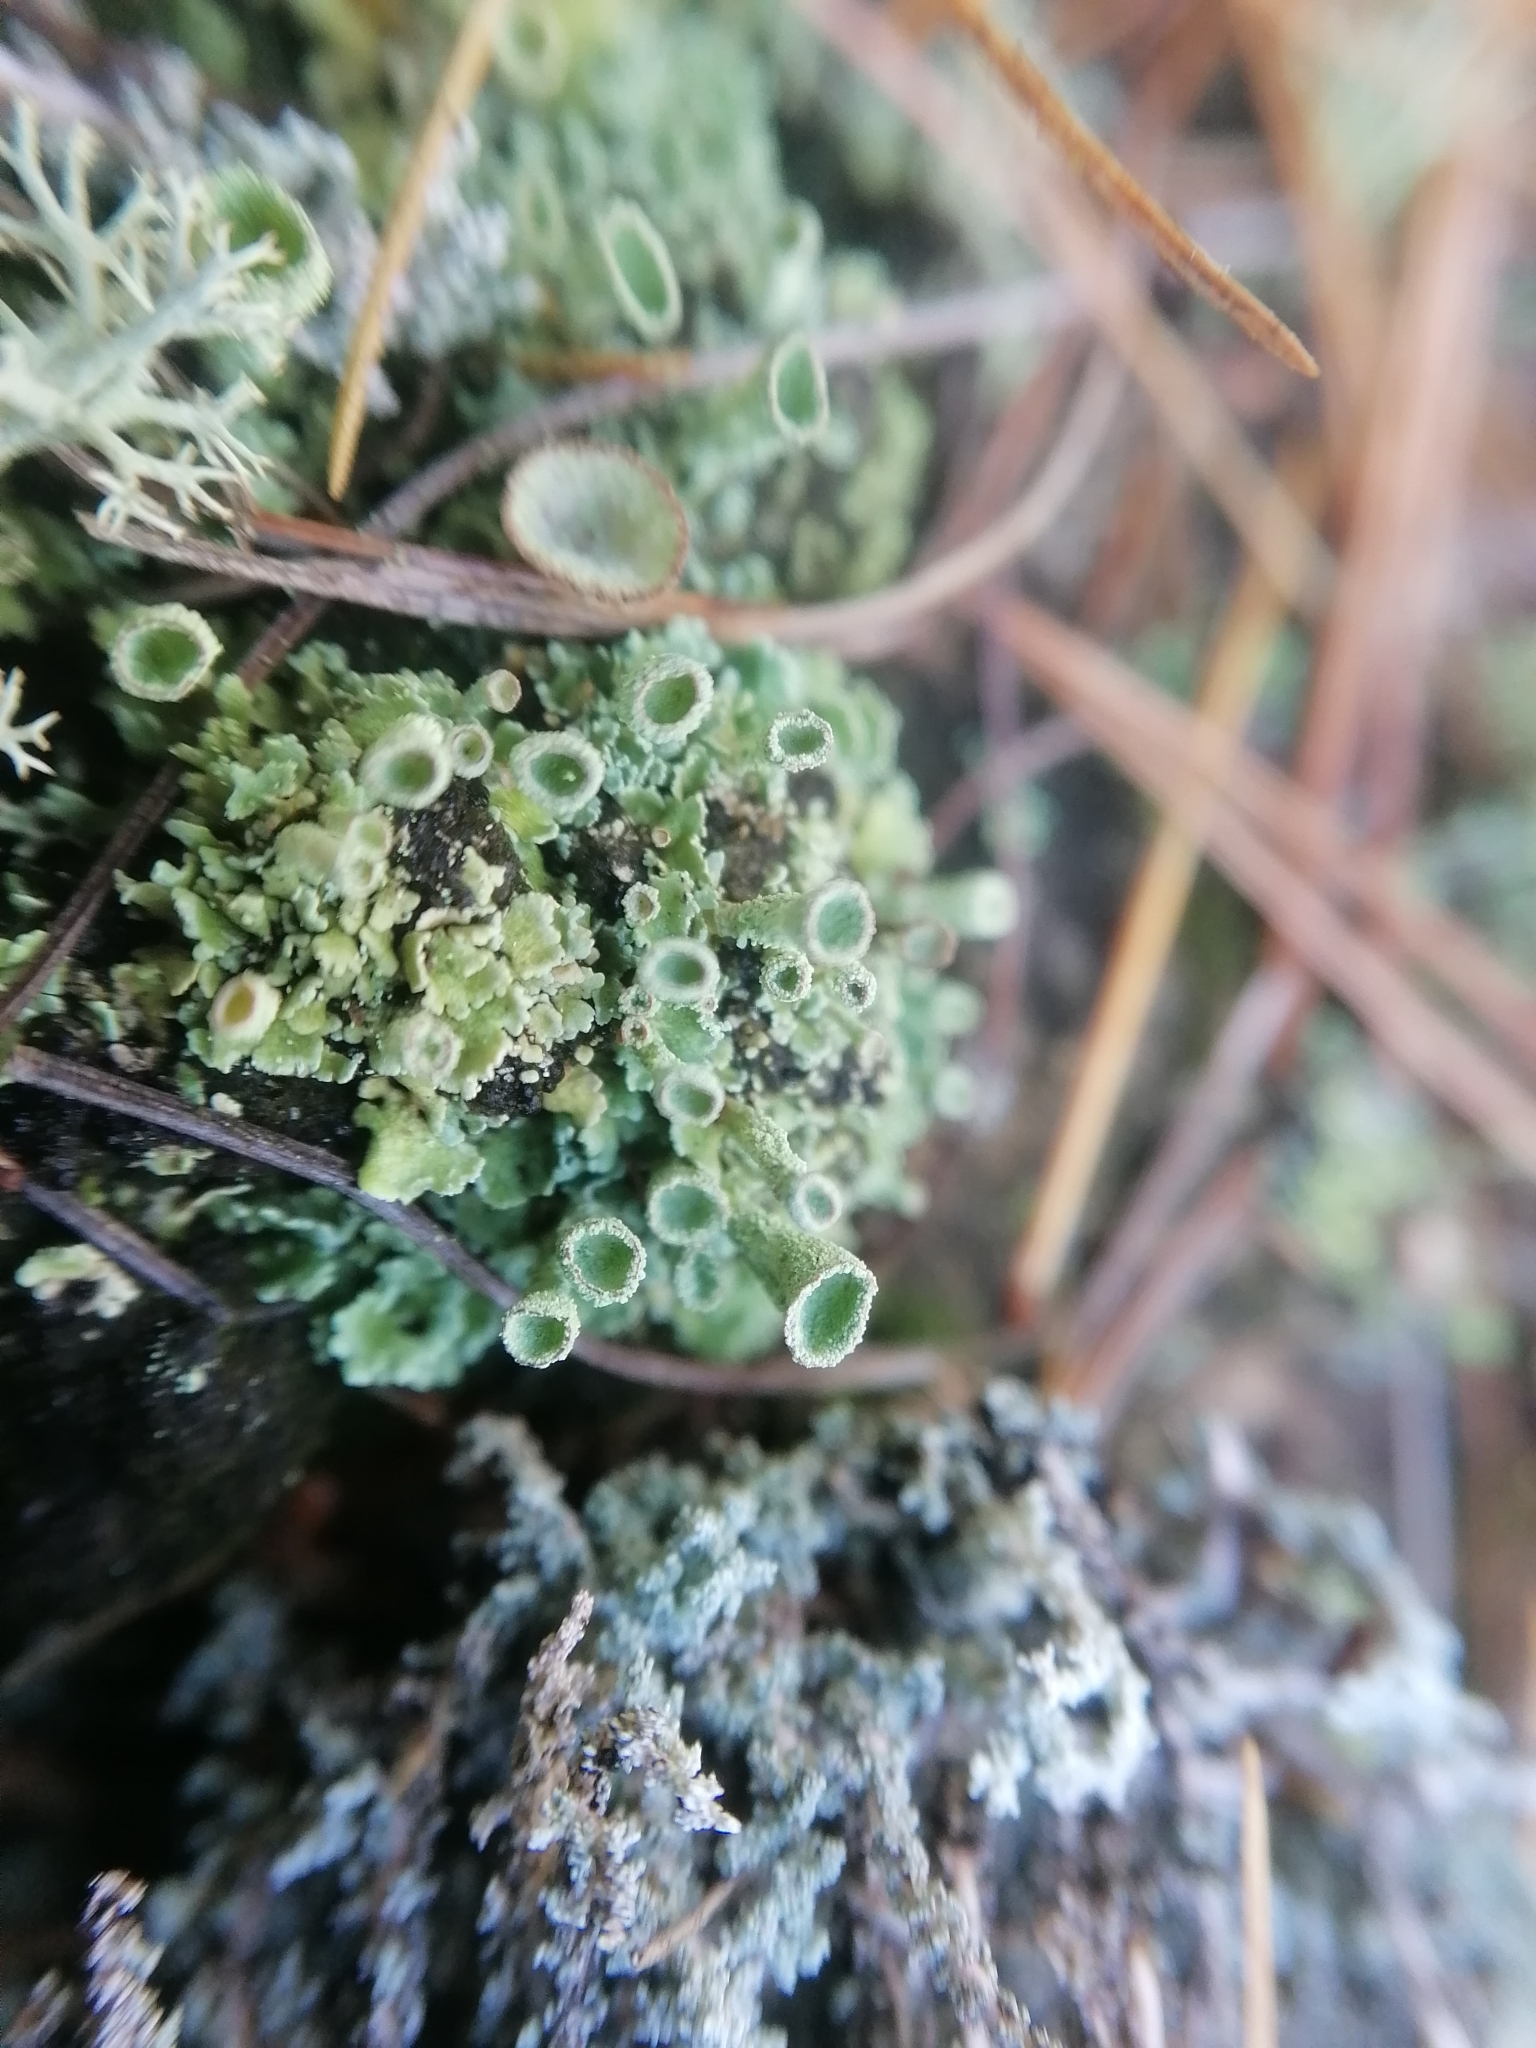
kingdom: Fungi
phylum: Ascomycota
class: Lecanoromycetes
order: Lecanorales
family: Cladoniaceae
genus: Cladonia
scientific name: Cladonia fimbriata
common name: Powdered trumpet lichen
